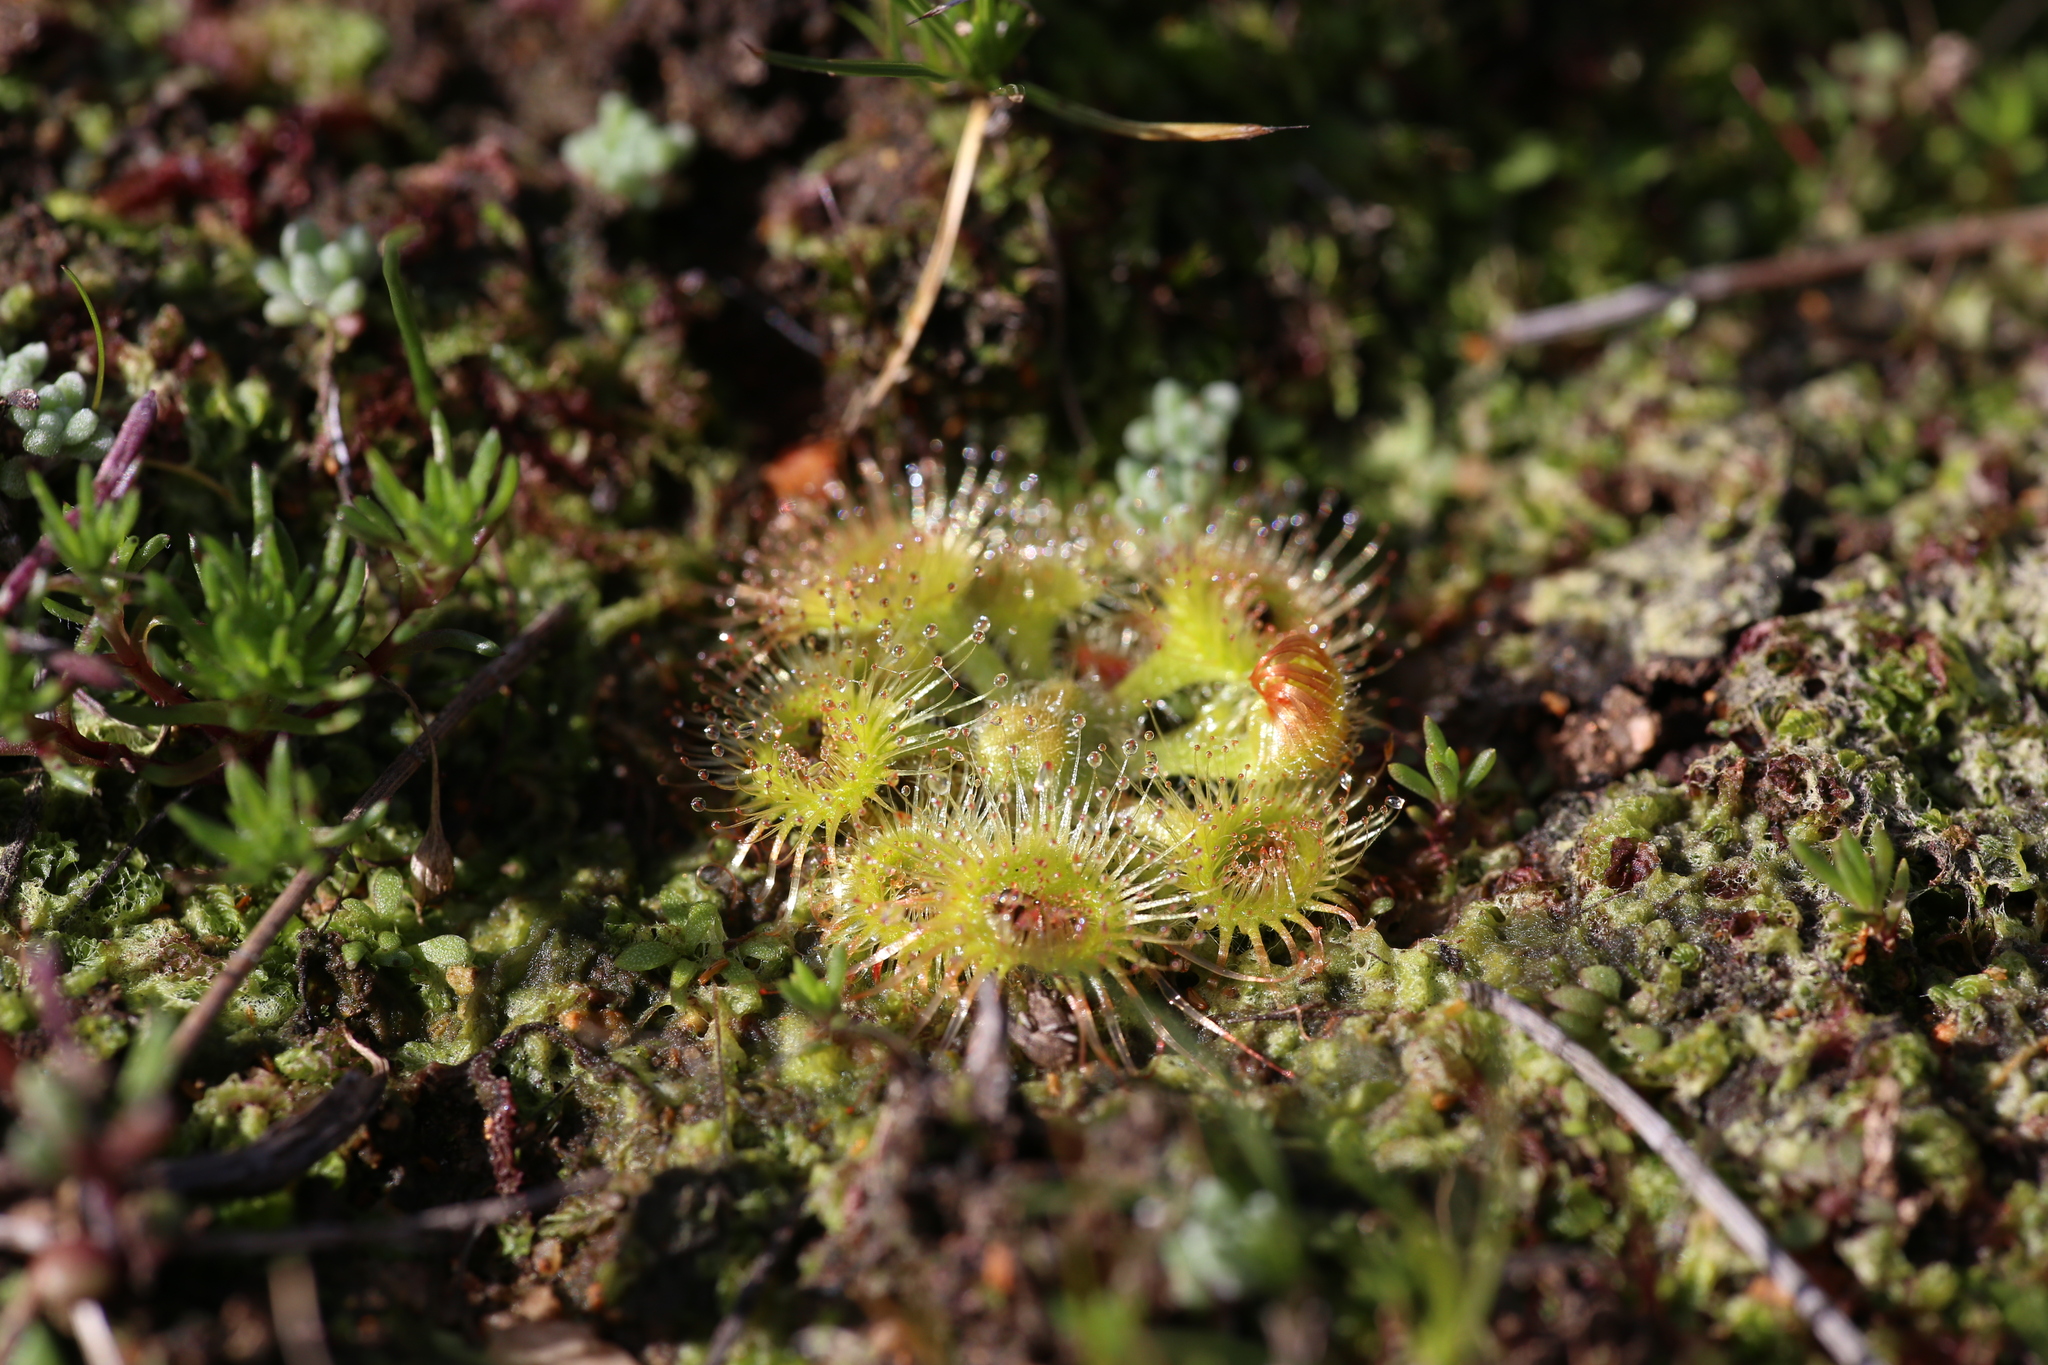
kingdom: Plantae
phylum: Tracheophyta
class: Magnoliopsida
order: Caryophyllales
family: Droseraceae
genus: Drosera
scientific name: Drosera glanduligera
